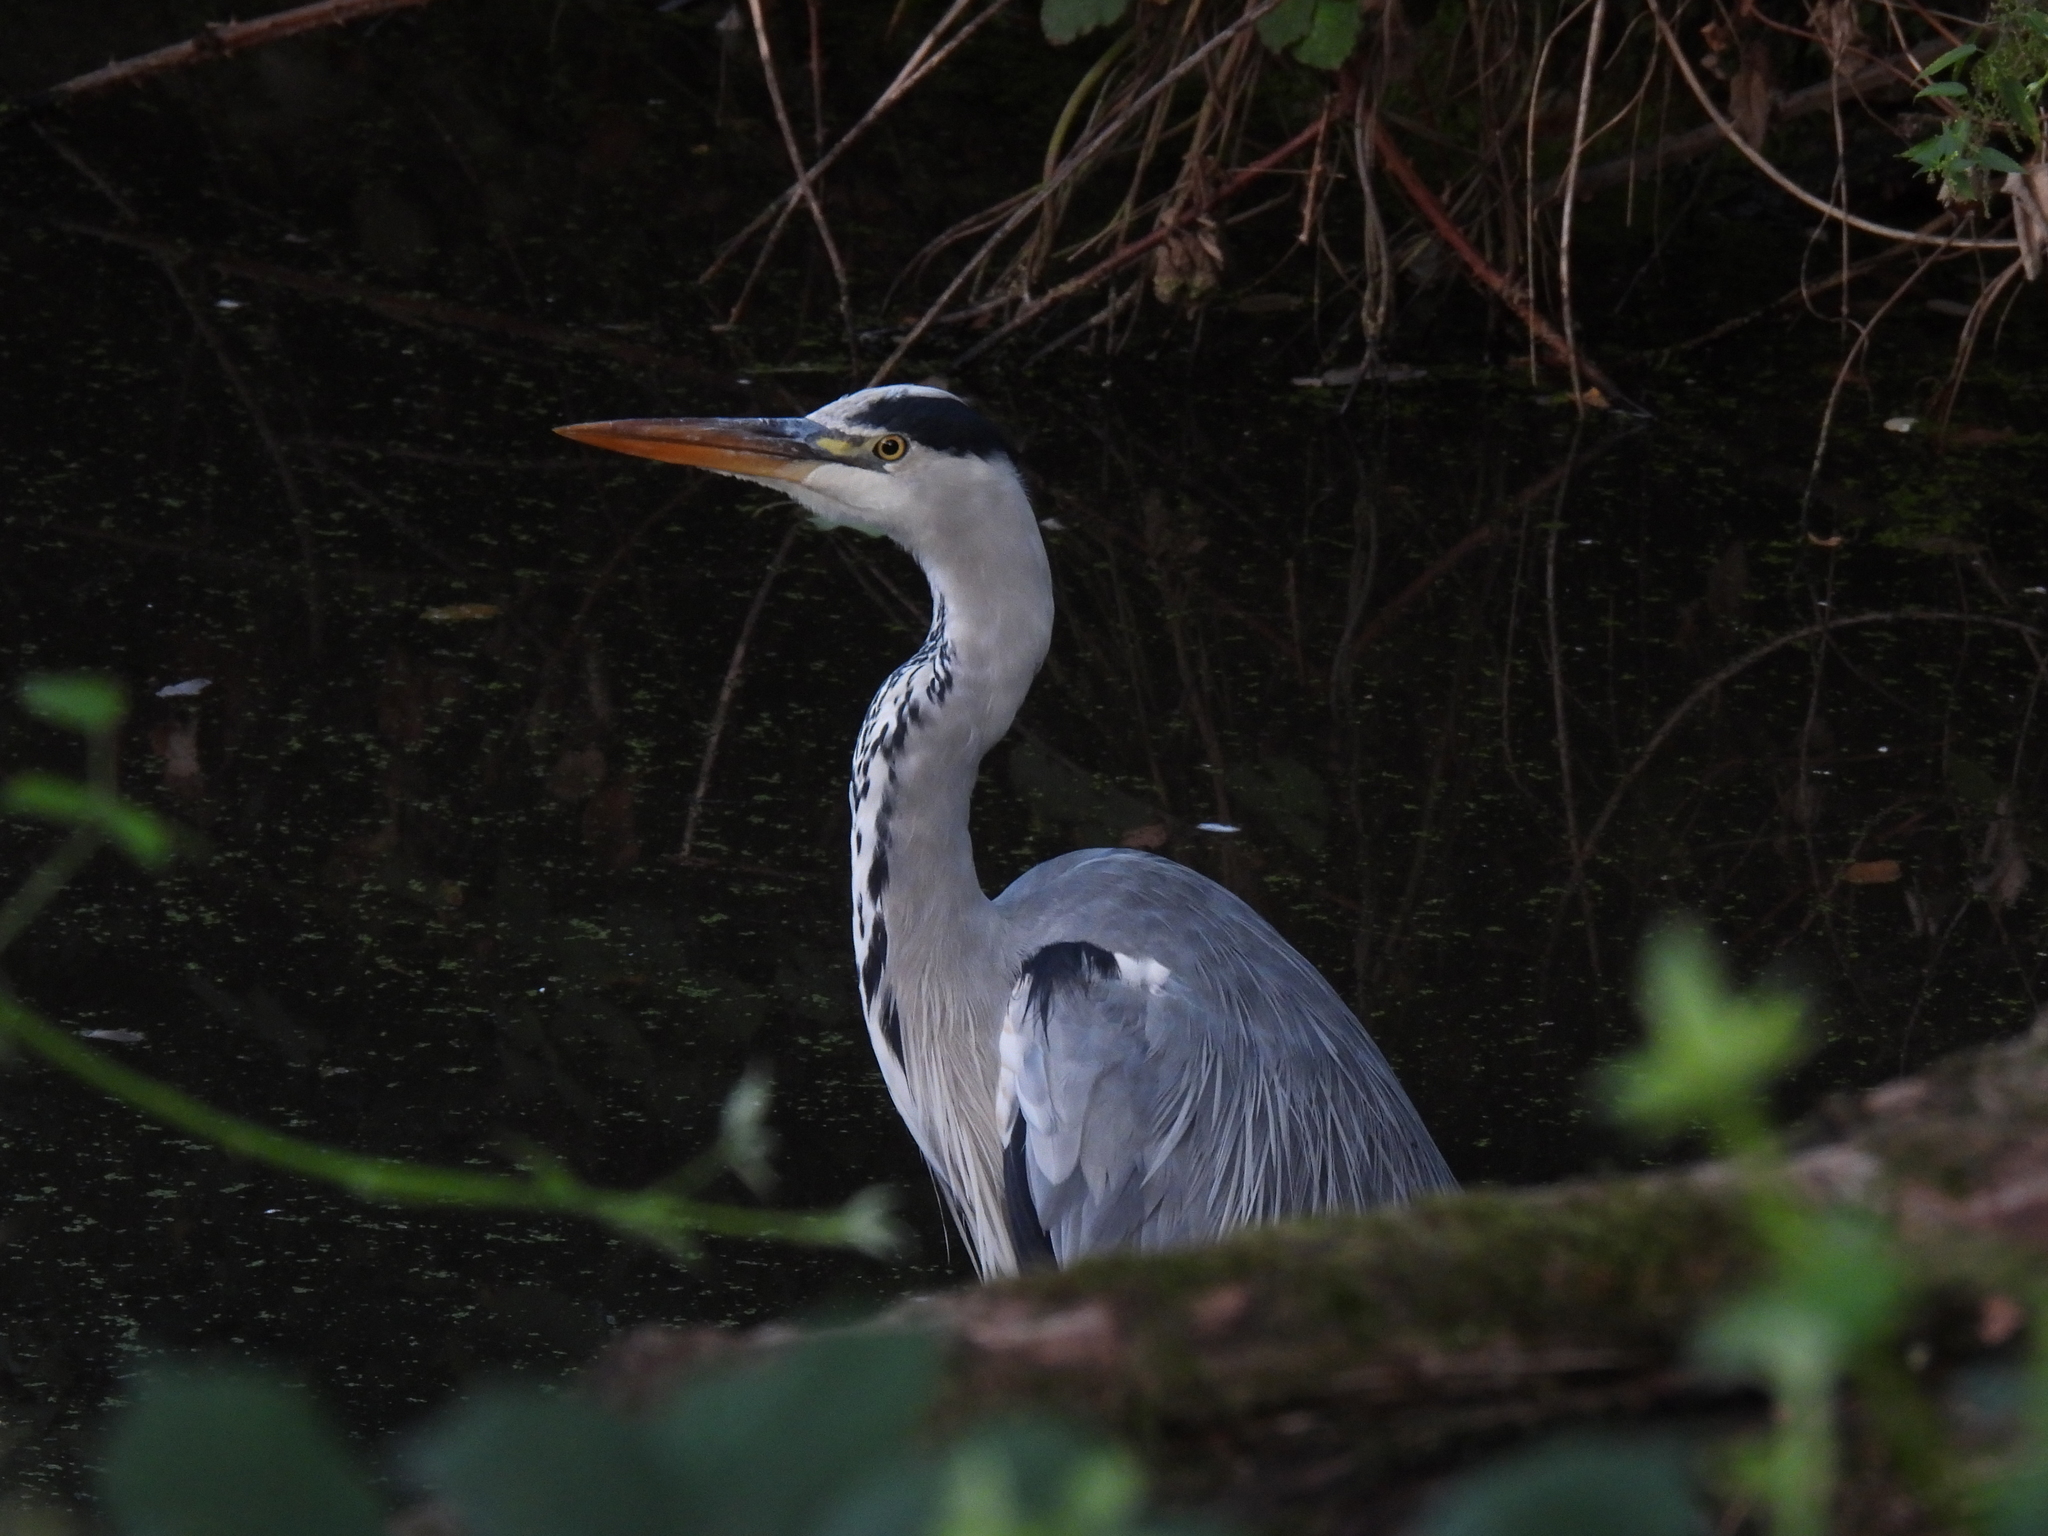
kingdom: Animalia
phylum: Chordata
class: Aves
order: Pelecaniformes
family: Ardeidae
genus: Ardea
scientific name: Ardea cinerea
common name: Grey heron
